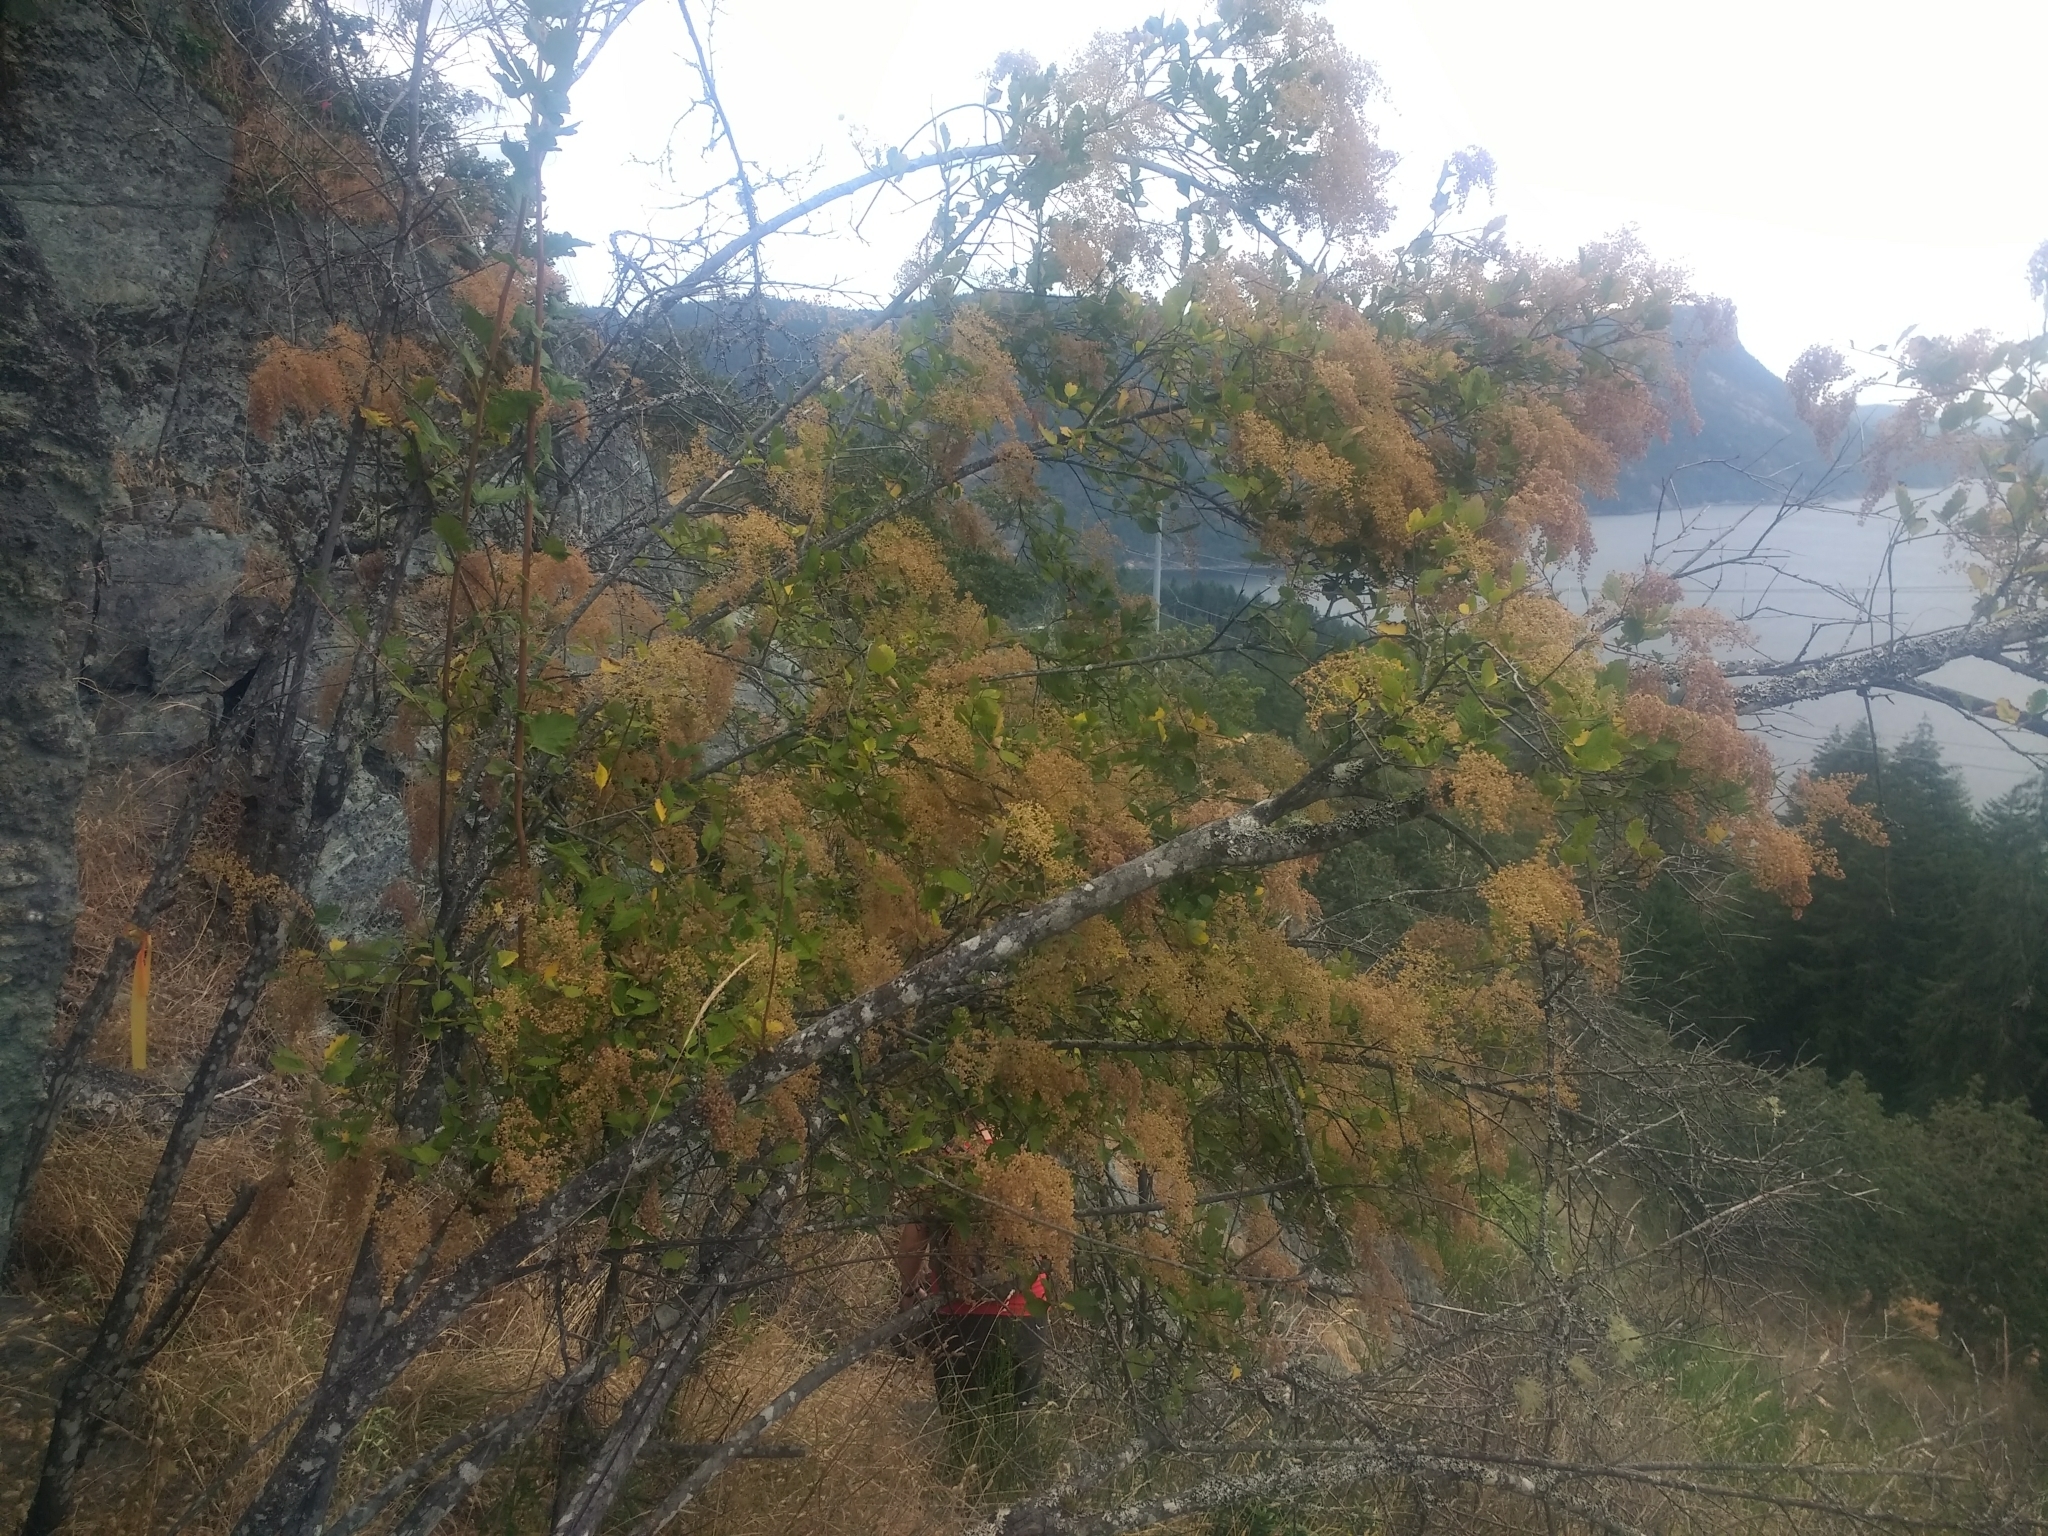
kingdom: Plantae
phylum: Tracheophyta
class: Magnoliopsida
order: Rosales
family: Rosaceae
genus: Holodiscus
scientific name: Holodiscus discolor
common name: Oceanspray
